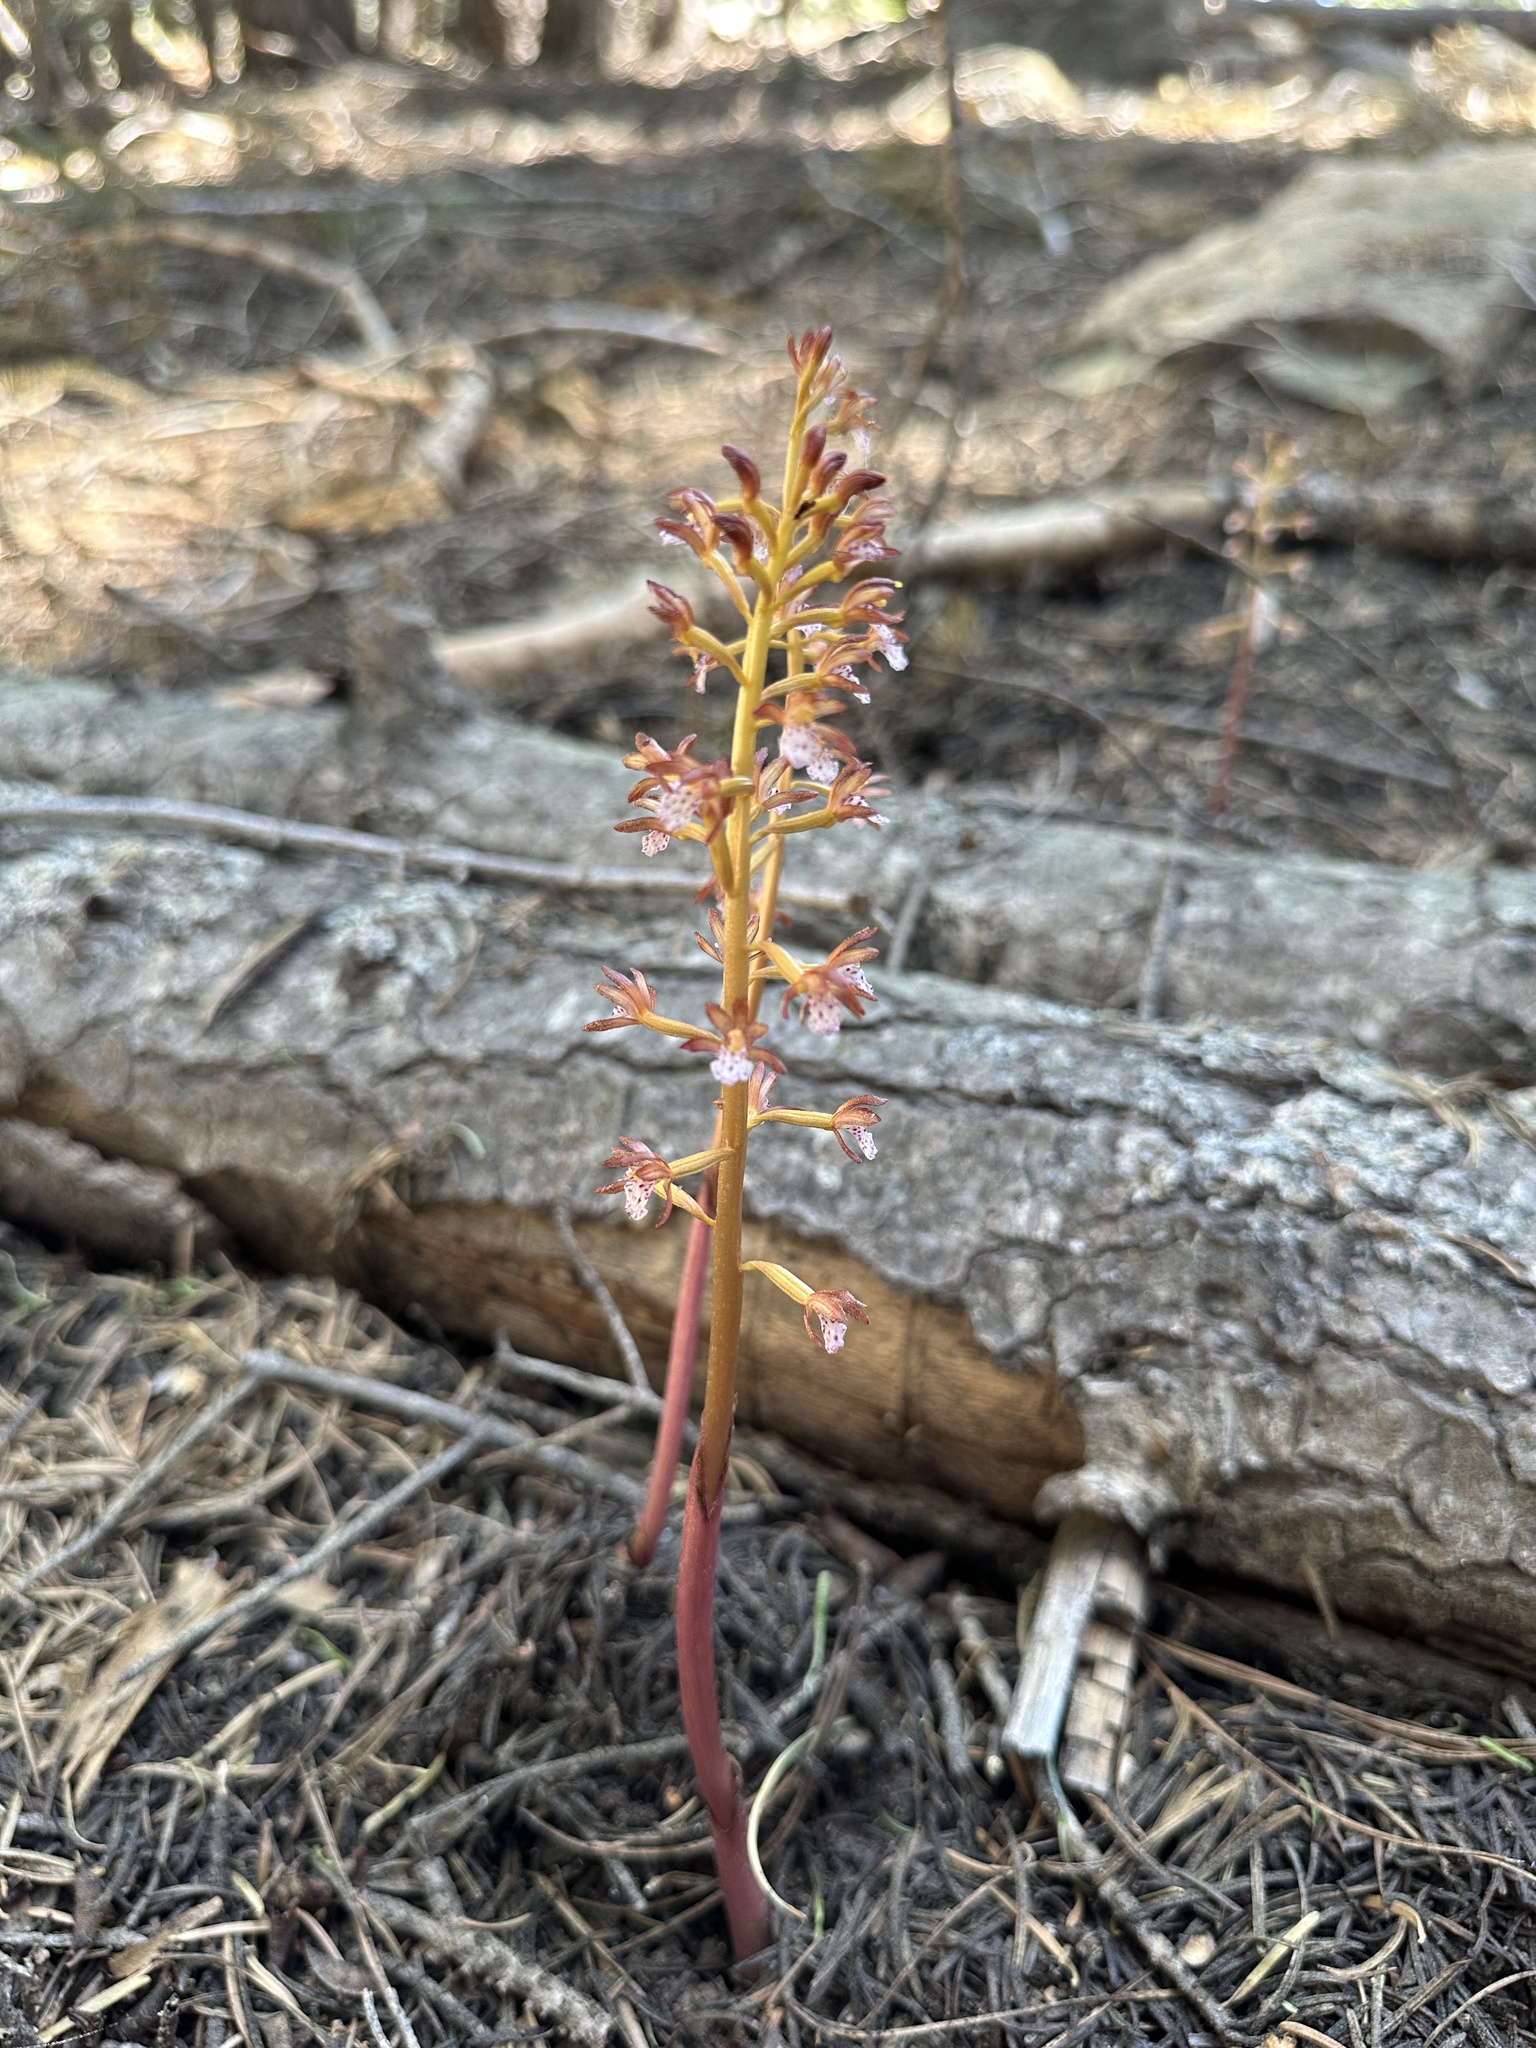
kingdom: Plantae
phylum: Tracheophyta
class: Liliopsida
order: Asparagales
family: Orchidaceae
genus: Corallorhiza
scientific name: Corallorhiza maculata
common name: Spotted coralroot
